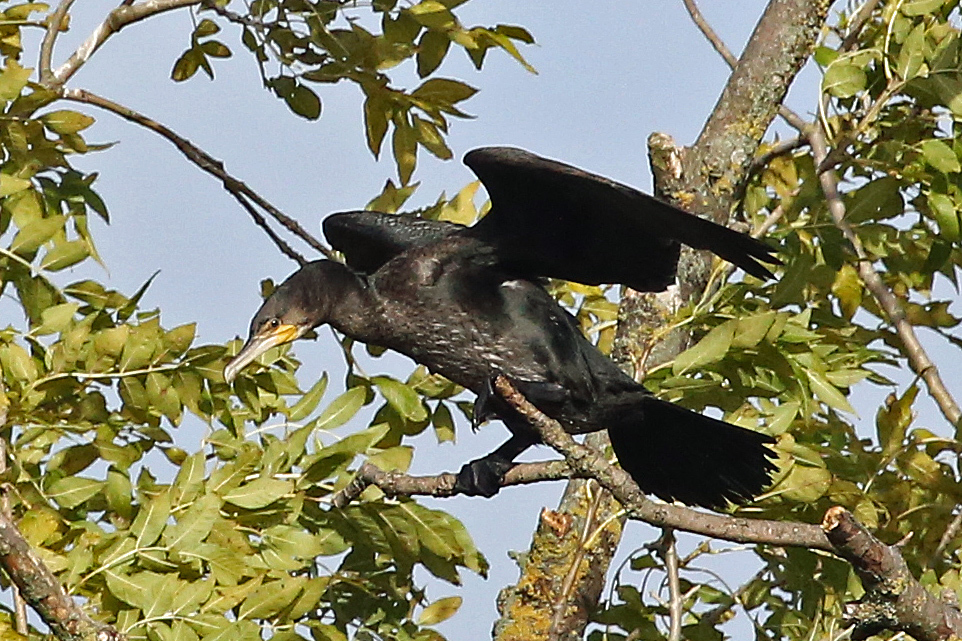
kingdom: Animalia
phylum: Chordata
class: Aves
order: Suliformes
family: Phalacrocoracidae
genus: Phalacrocorax
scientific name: Phalacrocorax carbo
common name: Great cormorant
